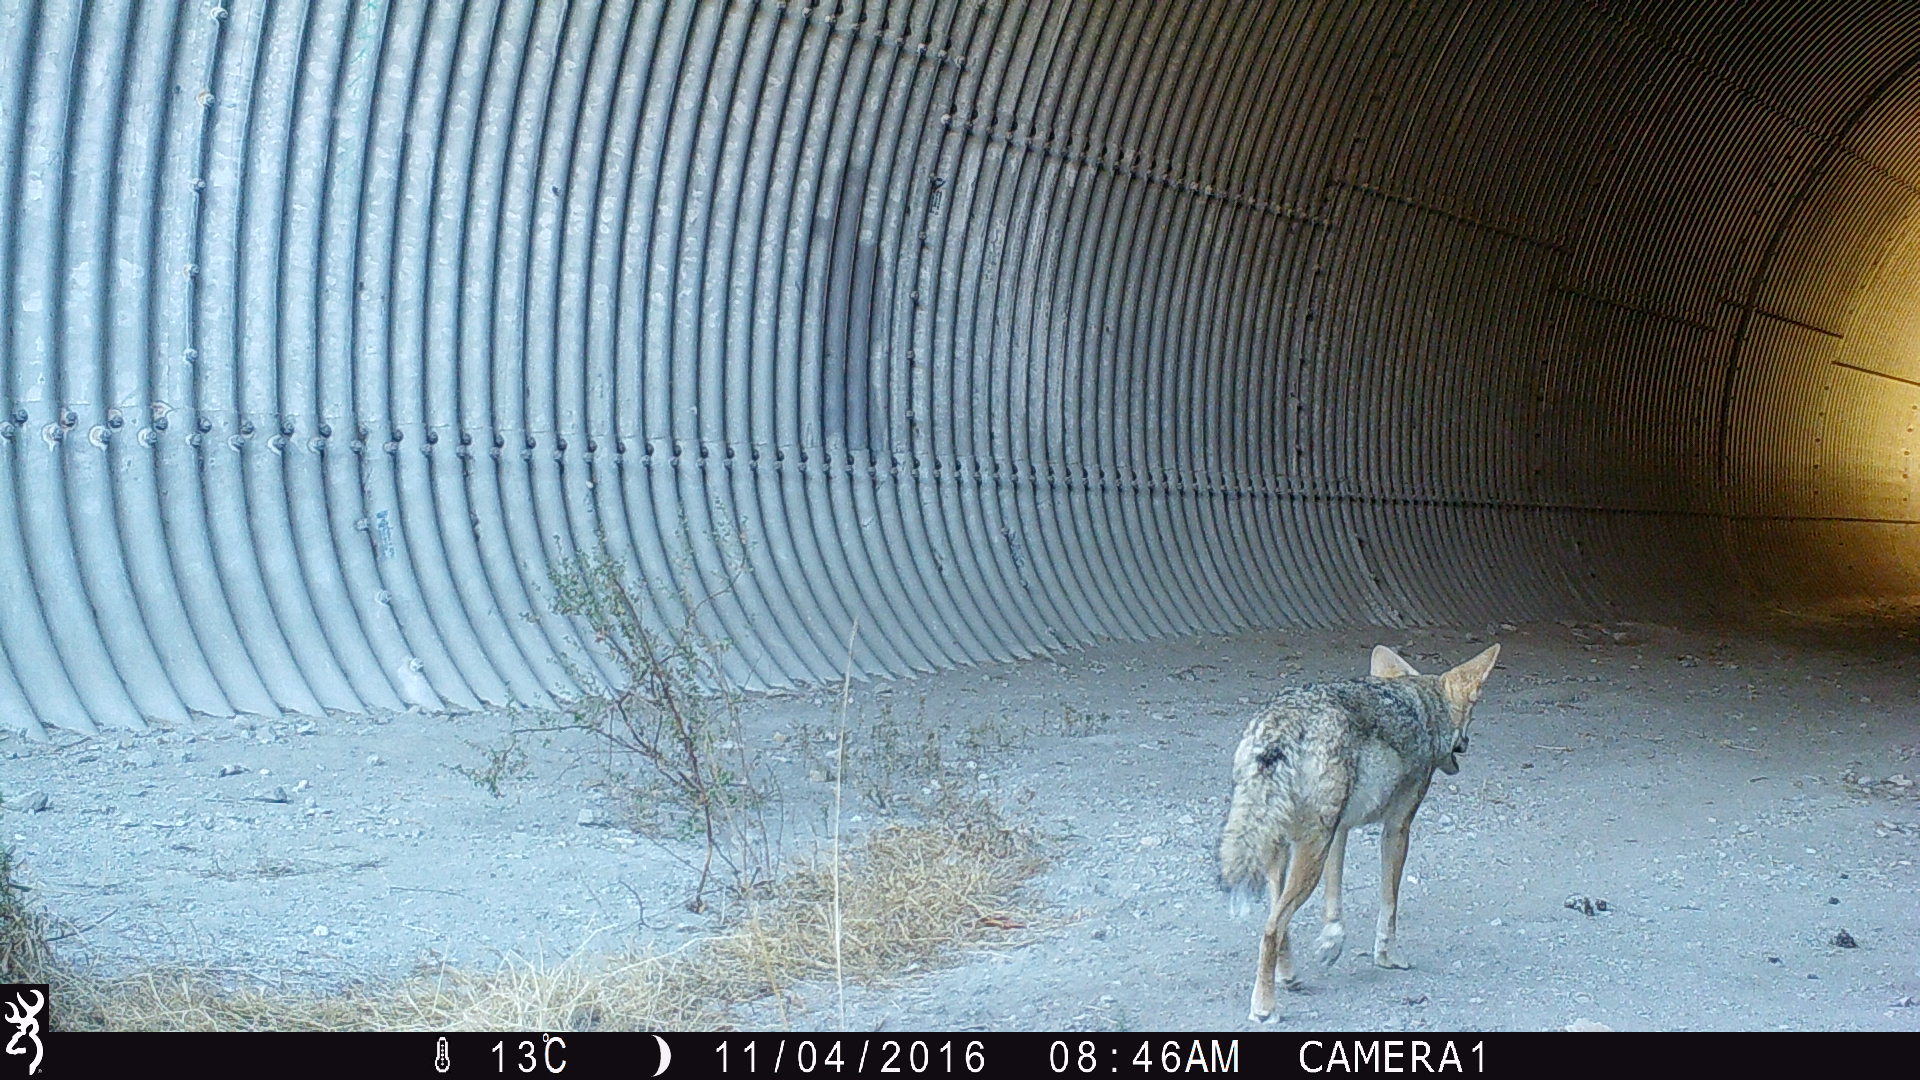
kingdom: Animalia
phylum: Chordata
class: Mammalia
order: Carnivora
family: Canidae
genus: Canis
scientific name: Canis latrans
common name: Coyote
